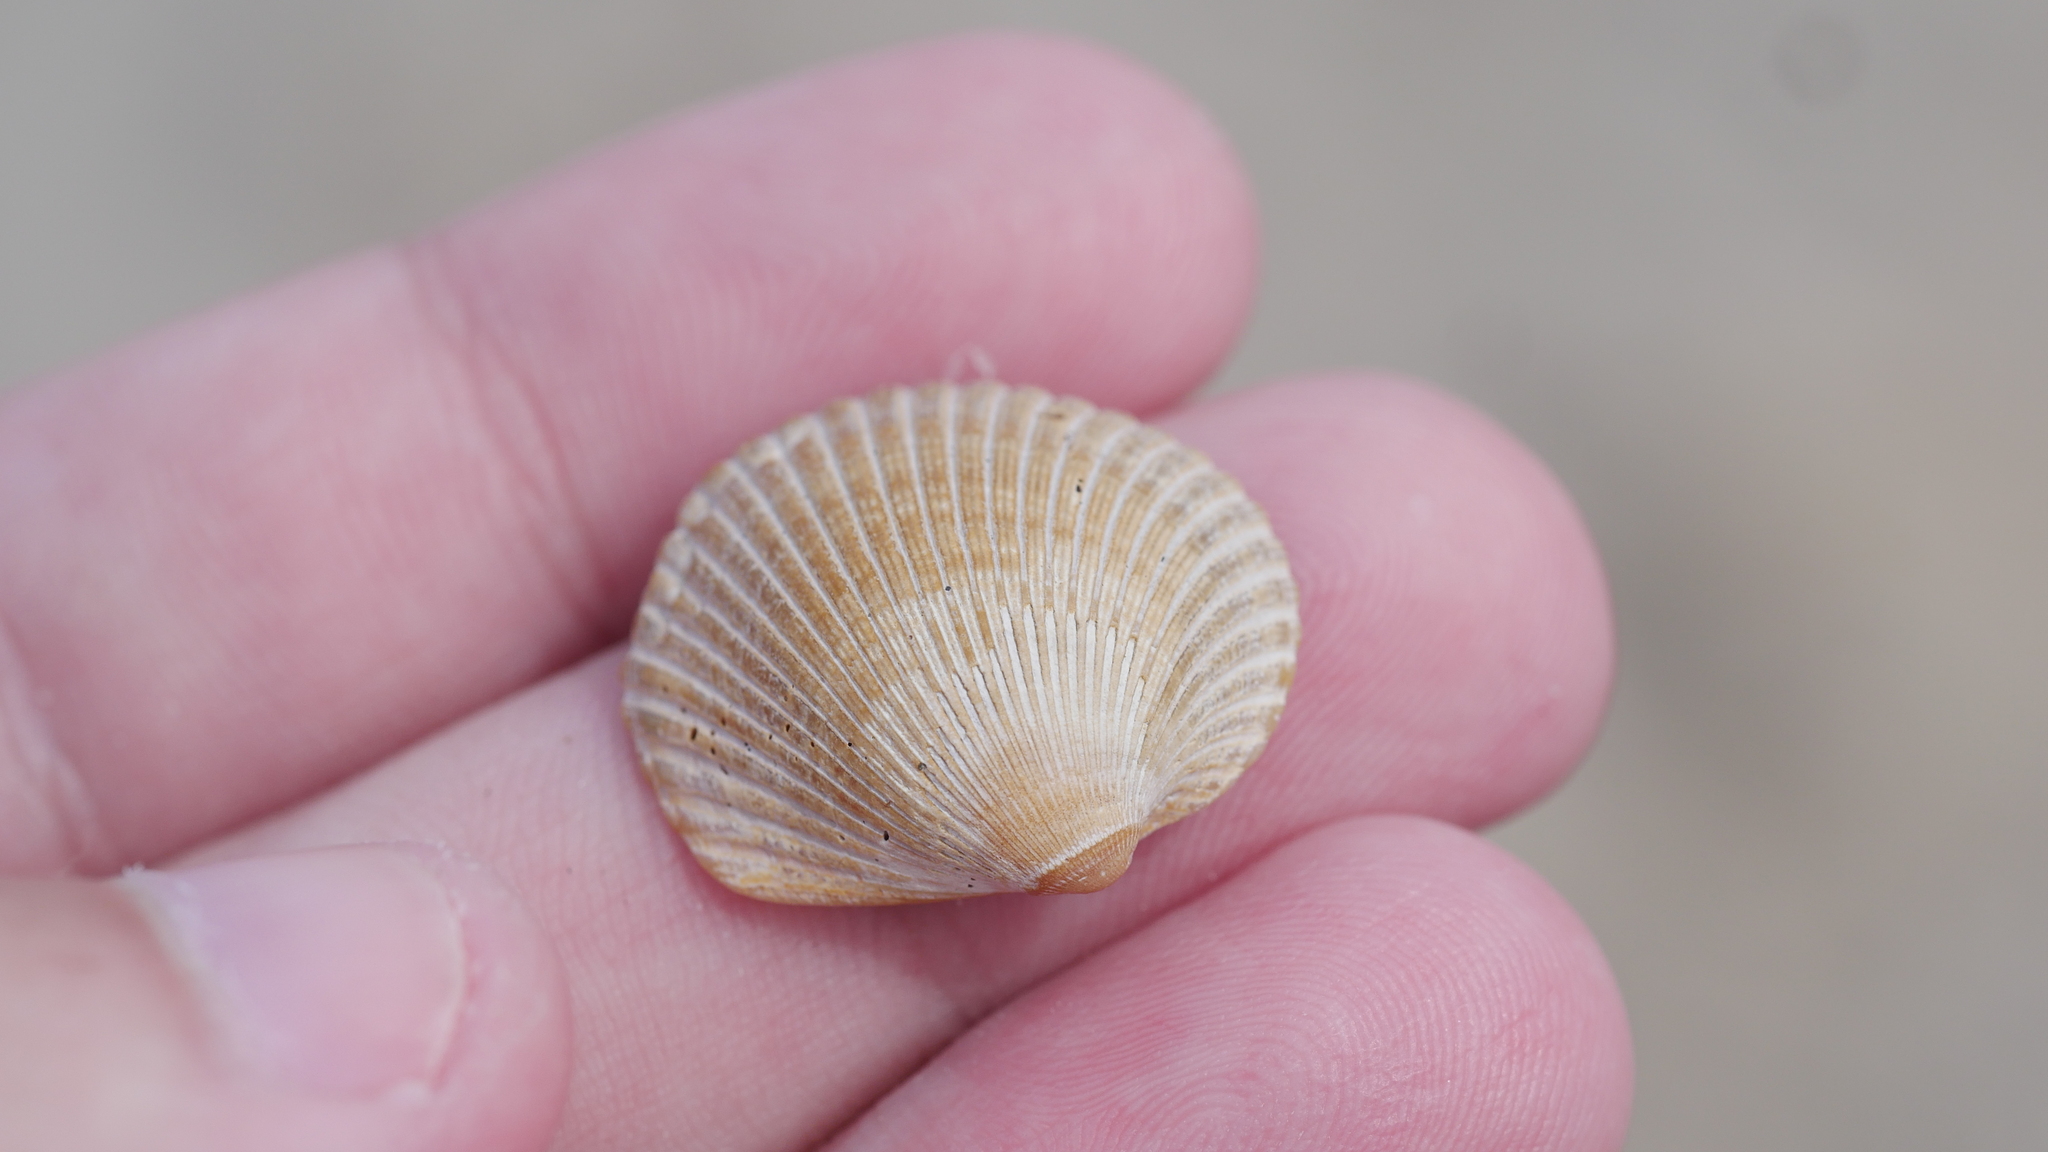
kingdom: Animalia
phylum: Mollusca
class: Bivalvia
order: Arcida
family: Arcidae
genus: Lunarca
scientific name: Lunarca ovalis
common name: Blood ark
